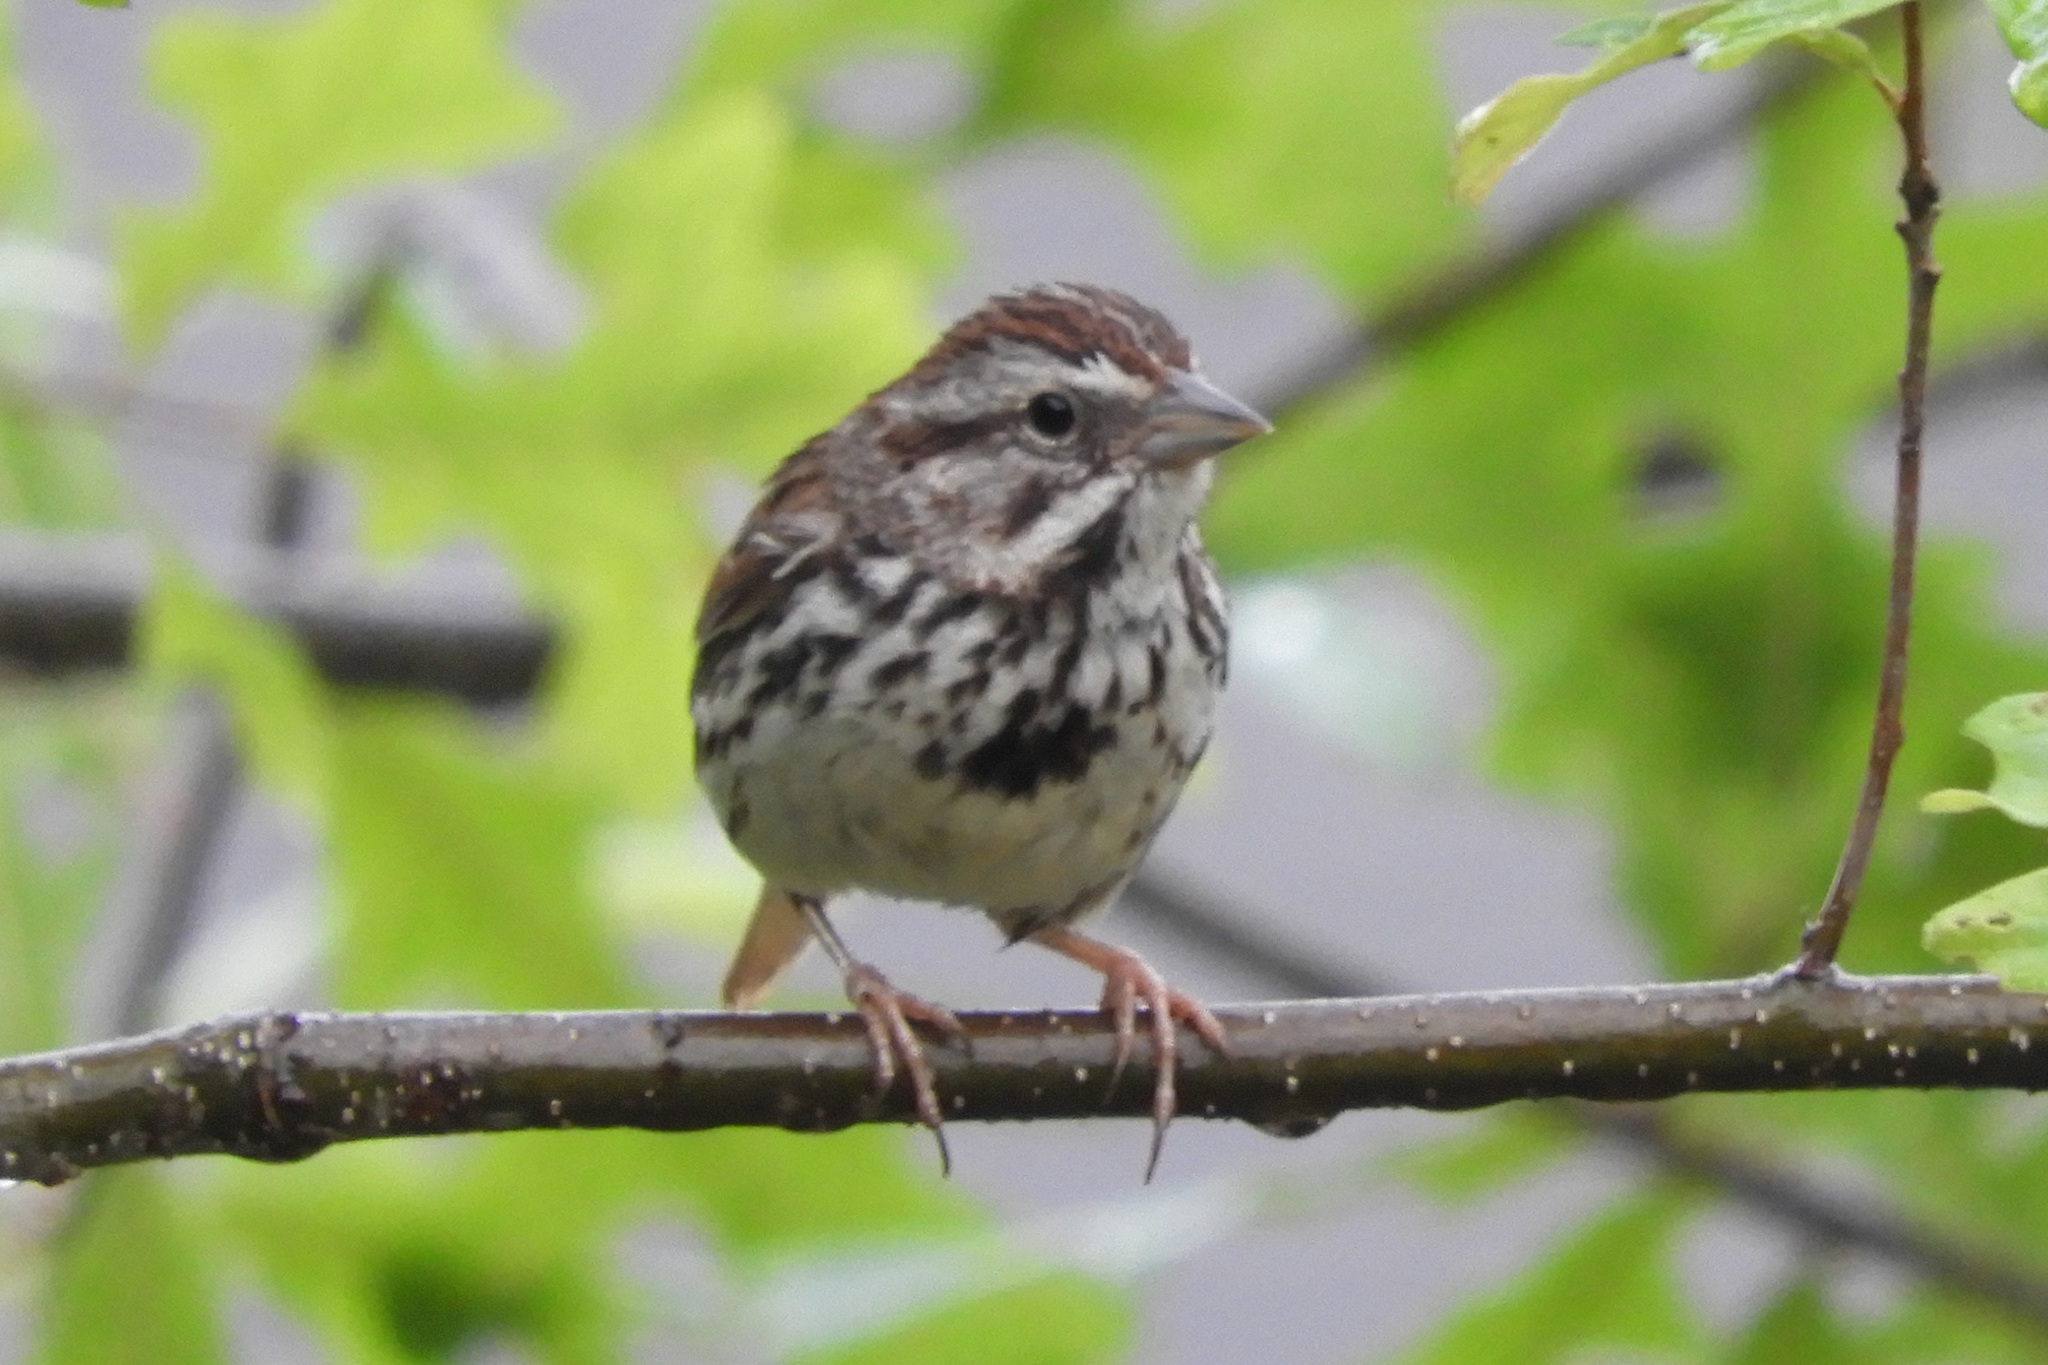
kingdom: Animalia
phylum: Chordata
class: Aves
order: Passeriformes
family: Passerellidae
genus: Melospiza
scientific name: Melospiza melodia
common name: Song sparrow
